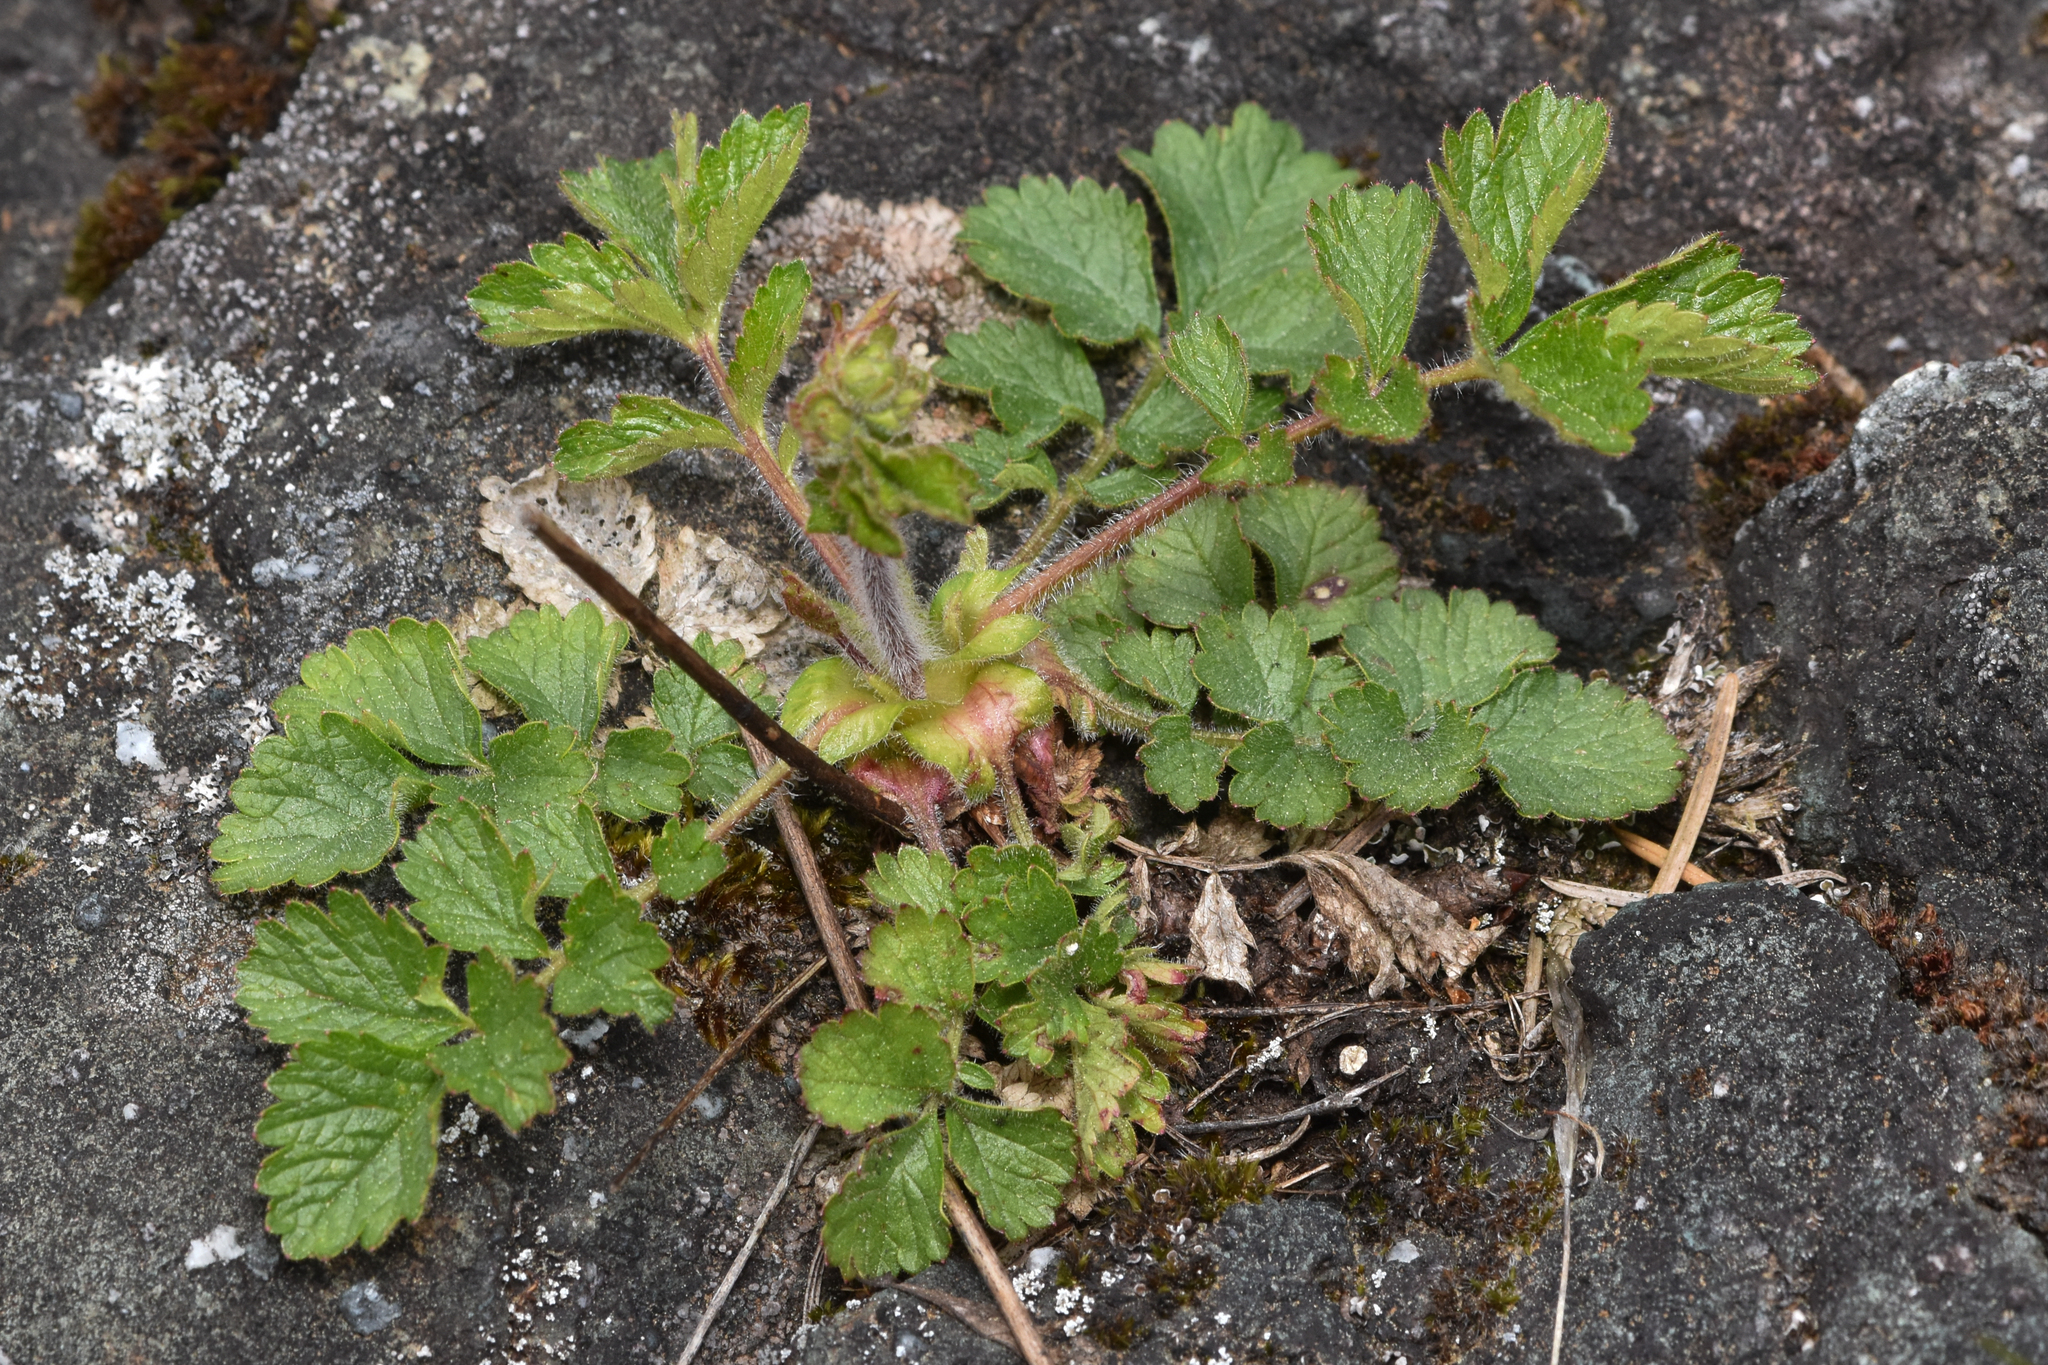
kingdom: Plantae
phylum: Tracheophyta
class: Magnoliopsida
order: Rosales
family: Rosaceae
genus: Drymocallis
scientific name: Drymocallis glandulosa
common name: Sticky cinquefoil
